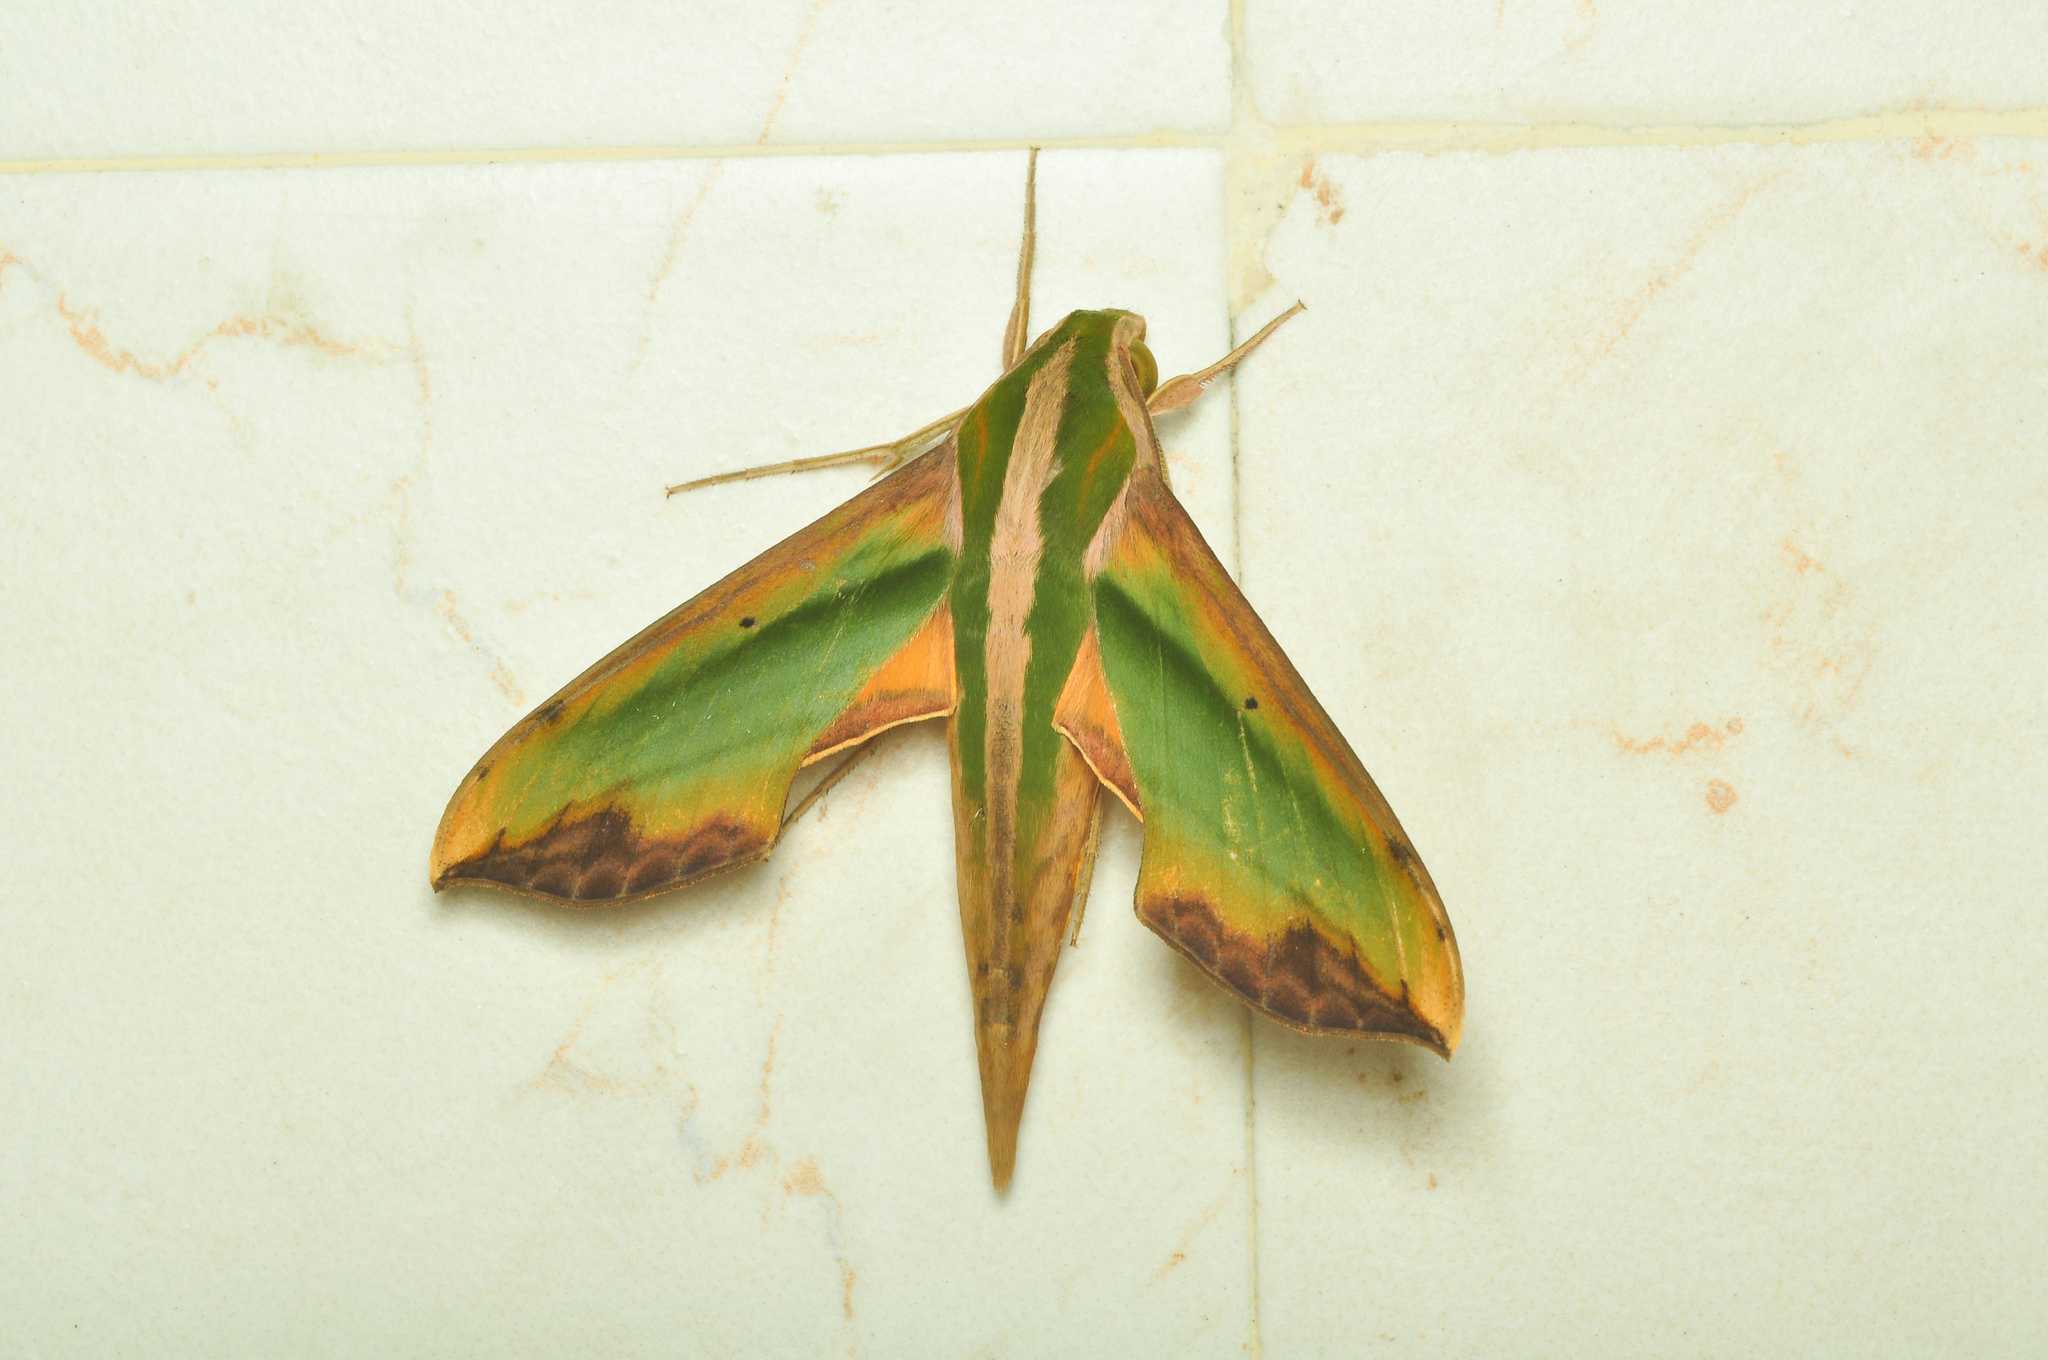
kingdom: Animalia
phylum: Arthropoda
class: Insecta
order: Lepidoptera
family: Sphingidae
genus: Pergesa
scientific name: Pergesa acteus
